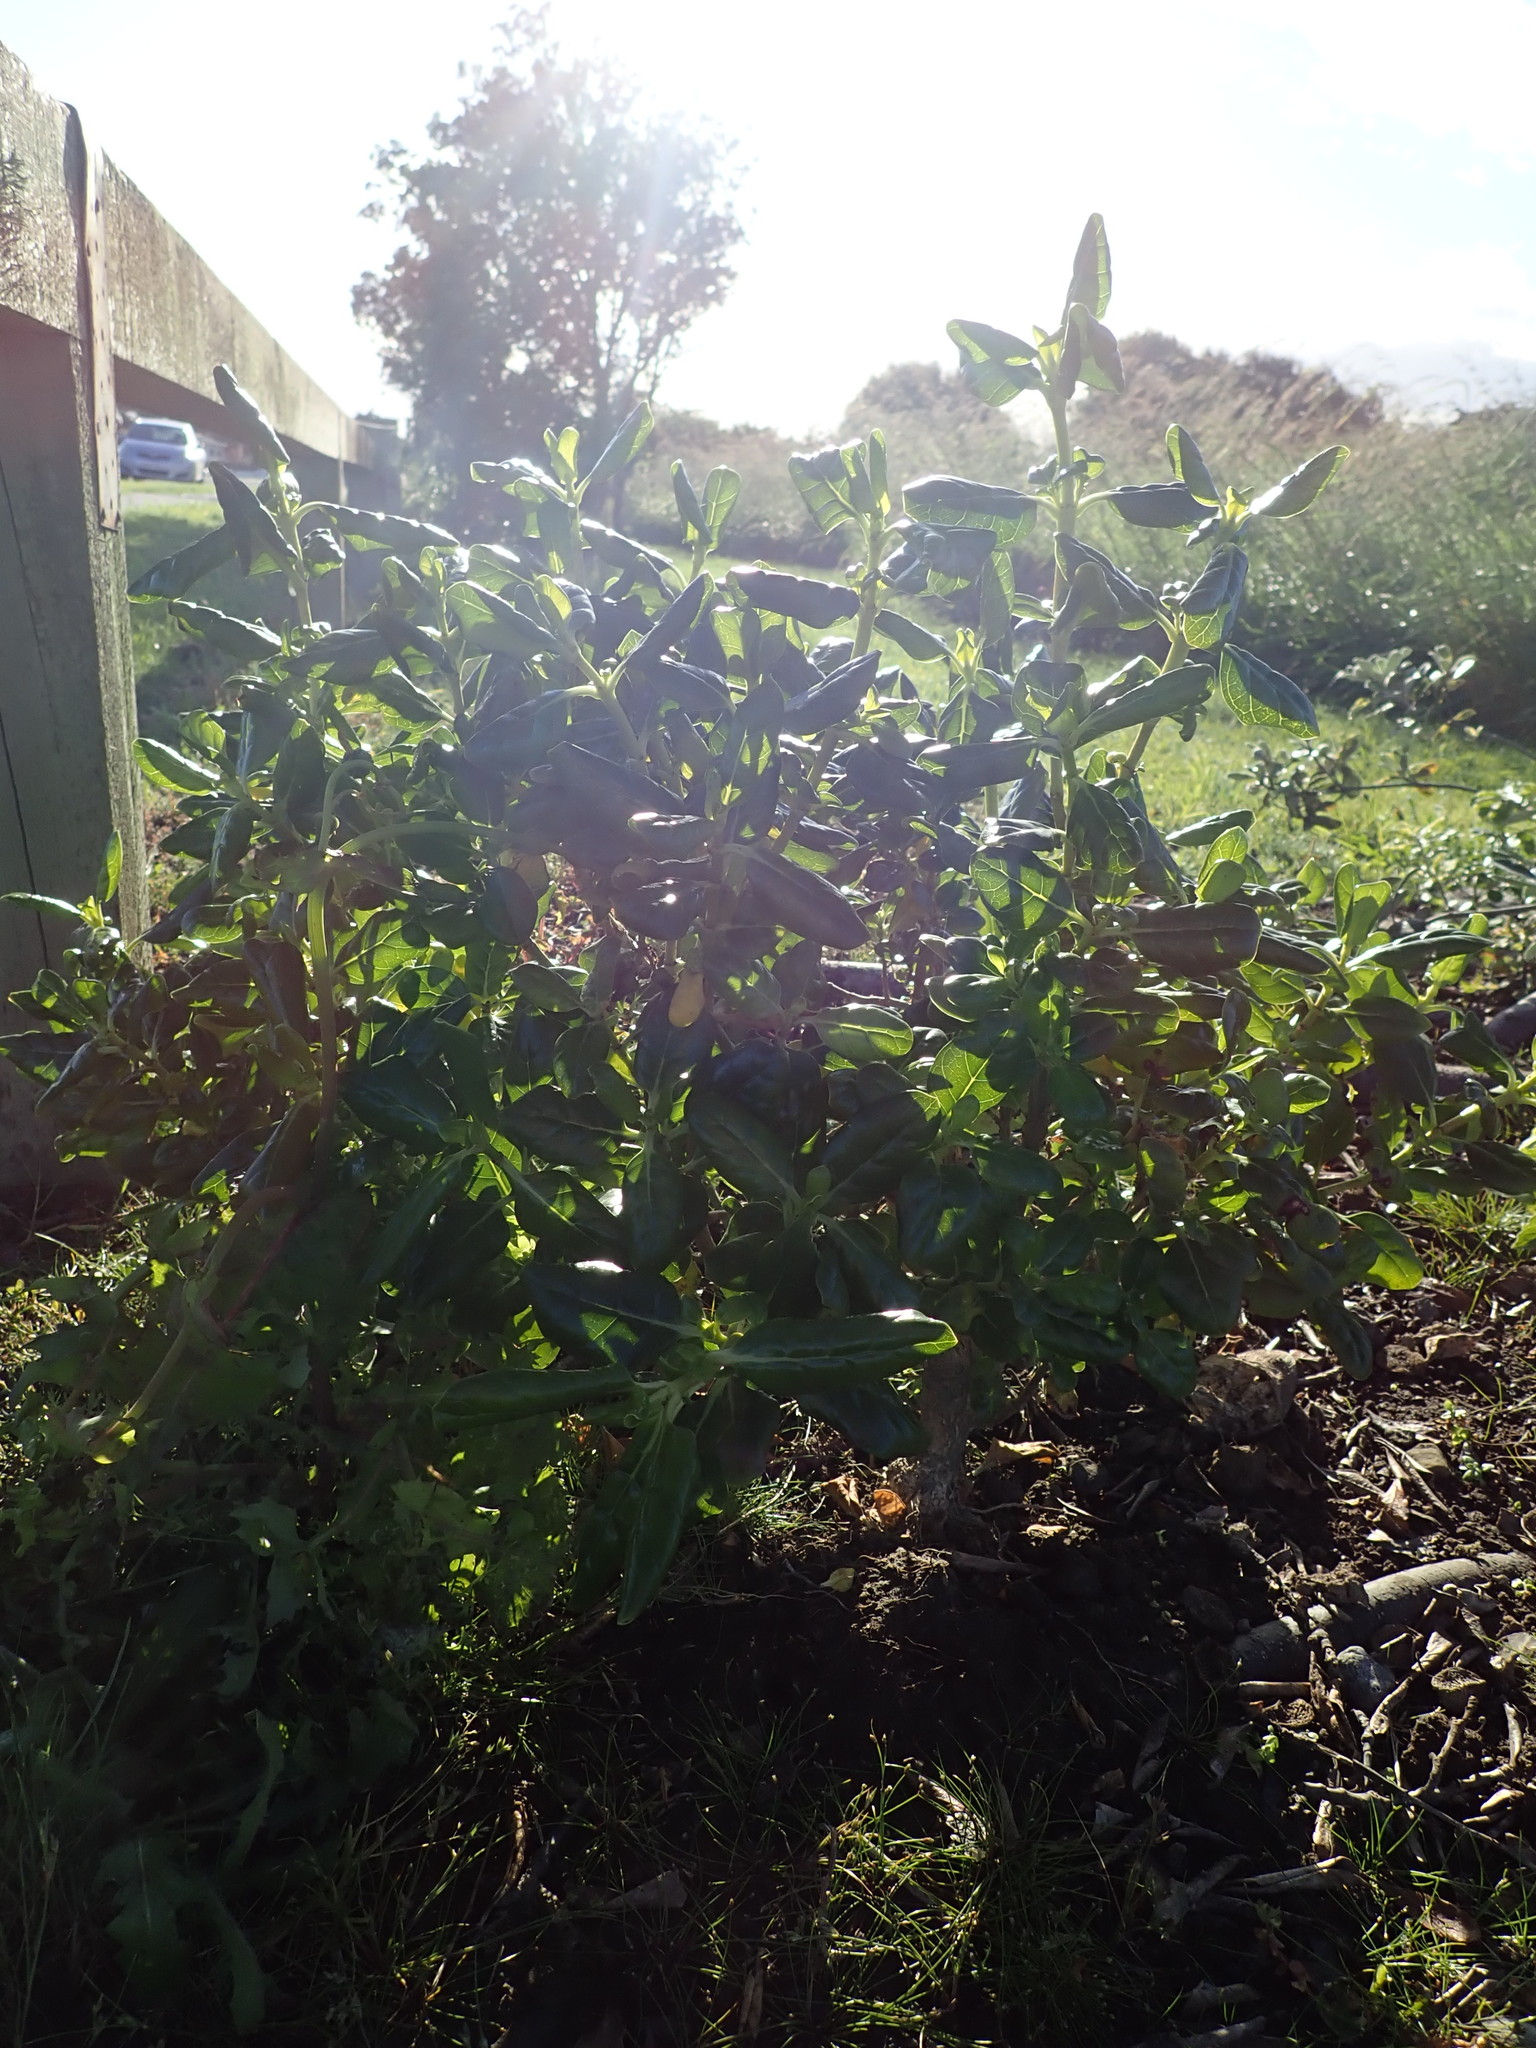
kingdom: Plantae
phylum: Tracheophyta
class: Magnoliopsida
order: Gentianales
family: Rubiaceae
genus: Coprosma
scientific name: Coprosma repens
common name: Tree bedstraw
